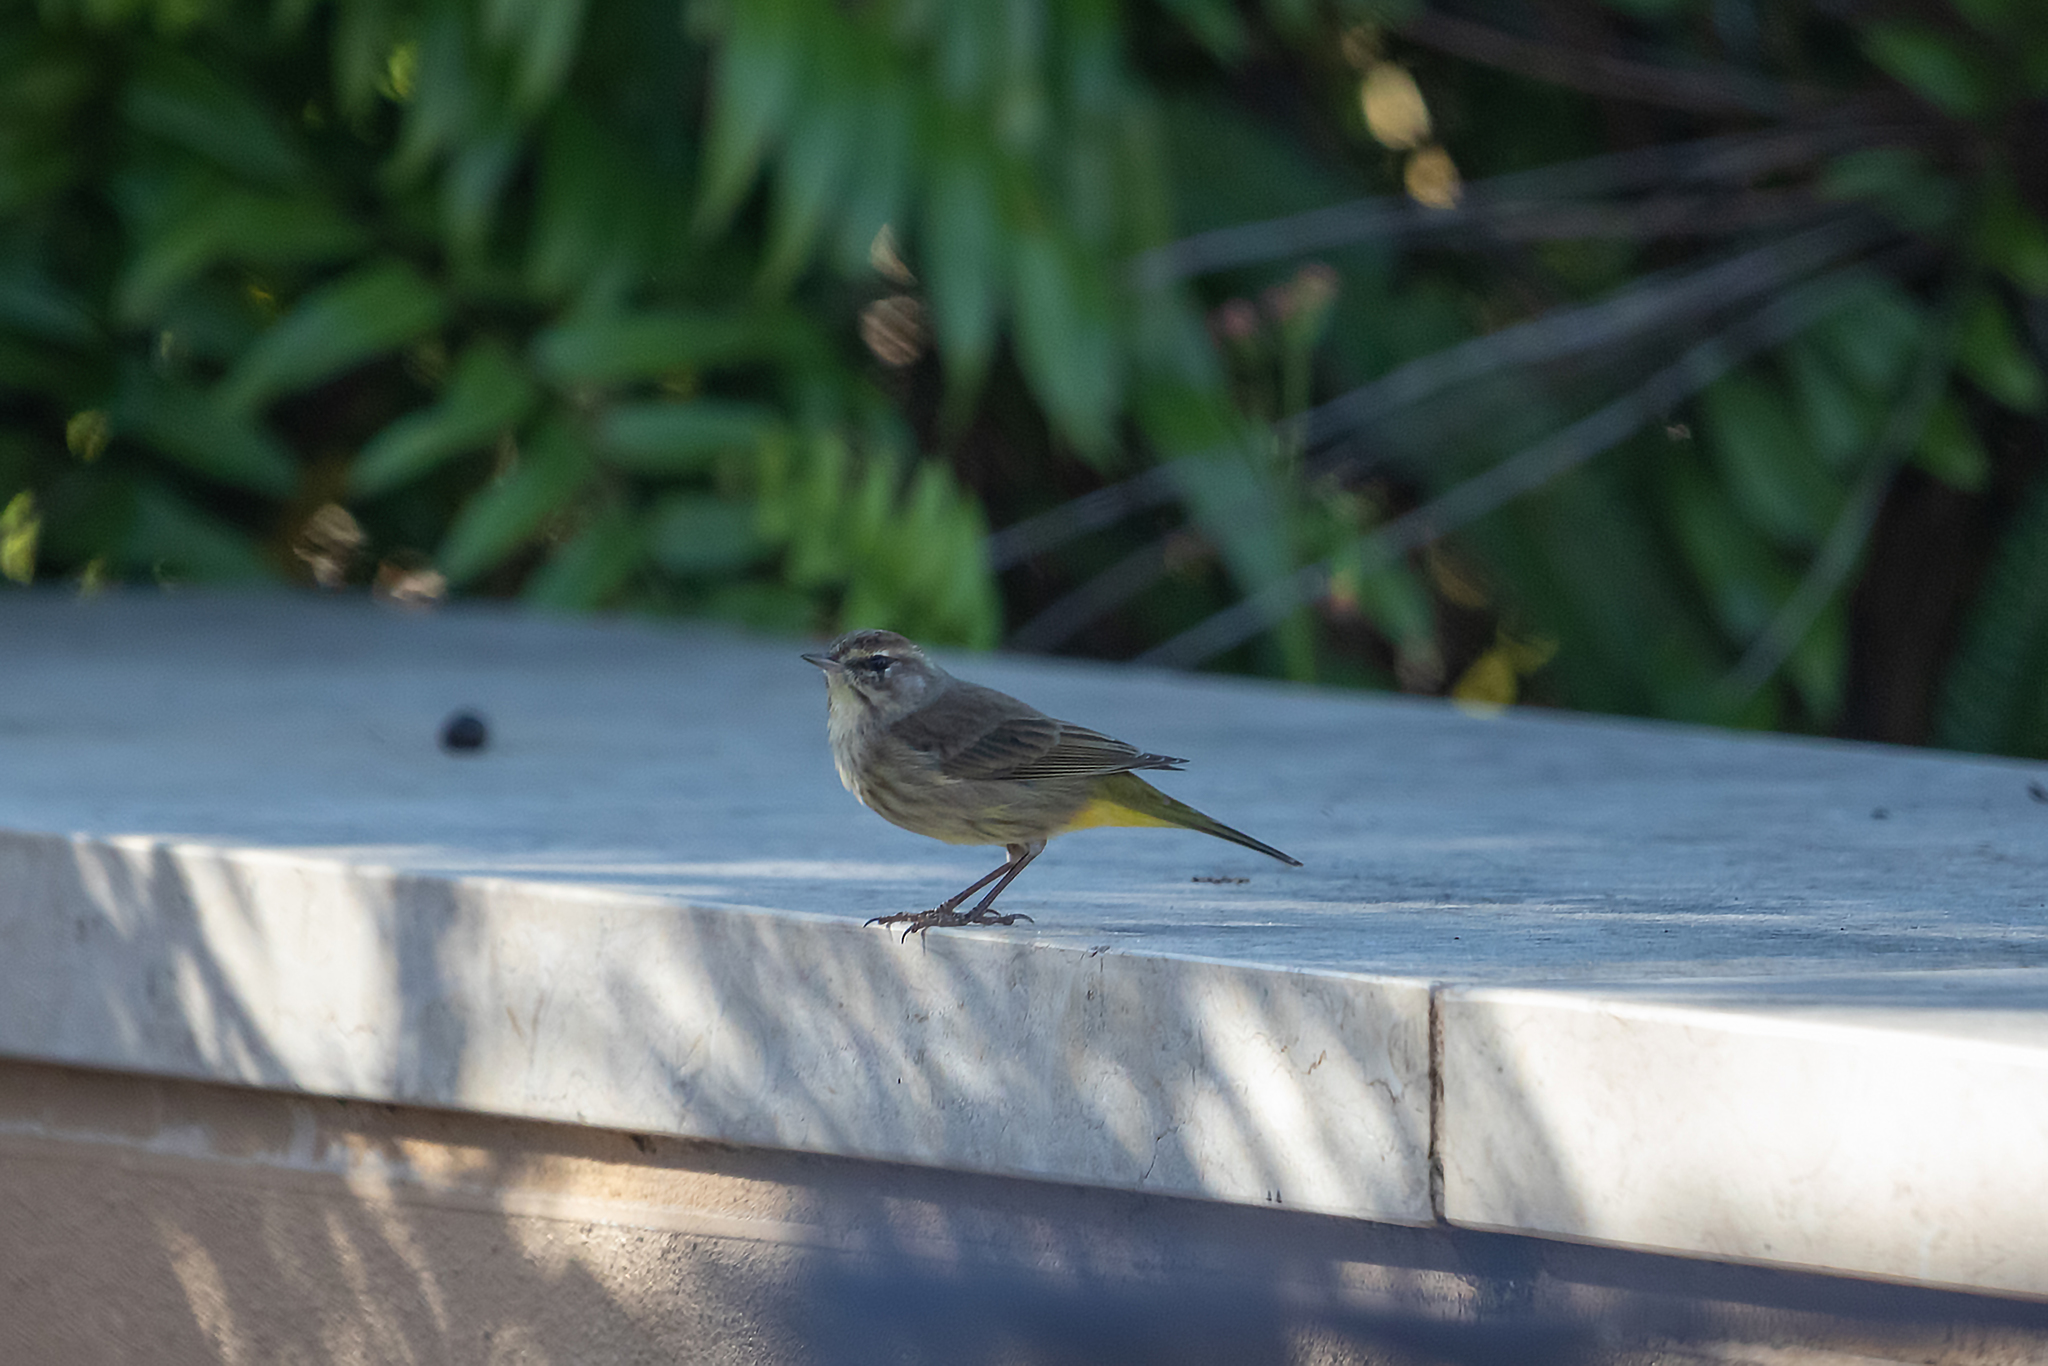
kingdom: Animalia
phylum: Chordata
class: Aves
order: Passeriformes
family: Parulidae
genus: Setophaga
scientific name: Setophaga palmarum
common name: Palm warbler
